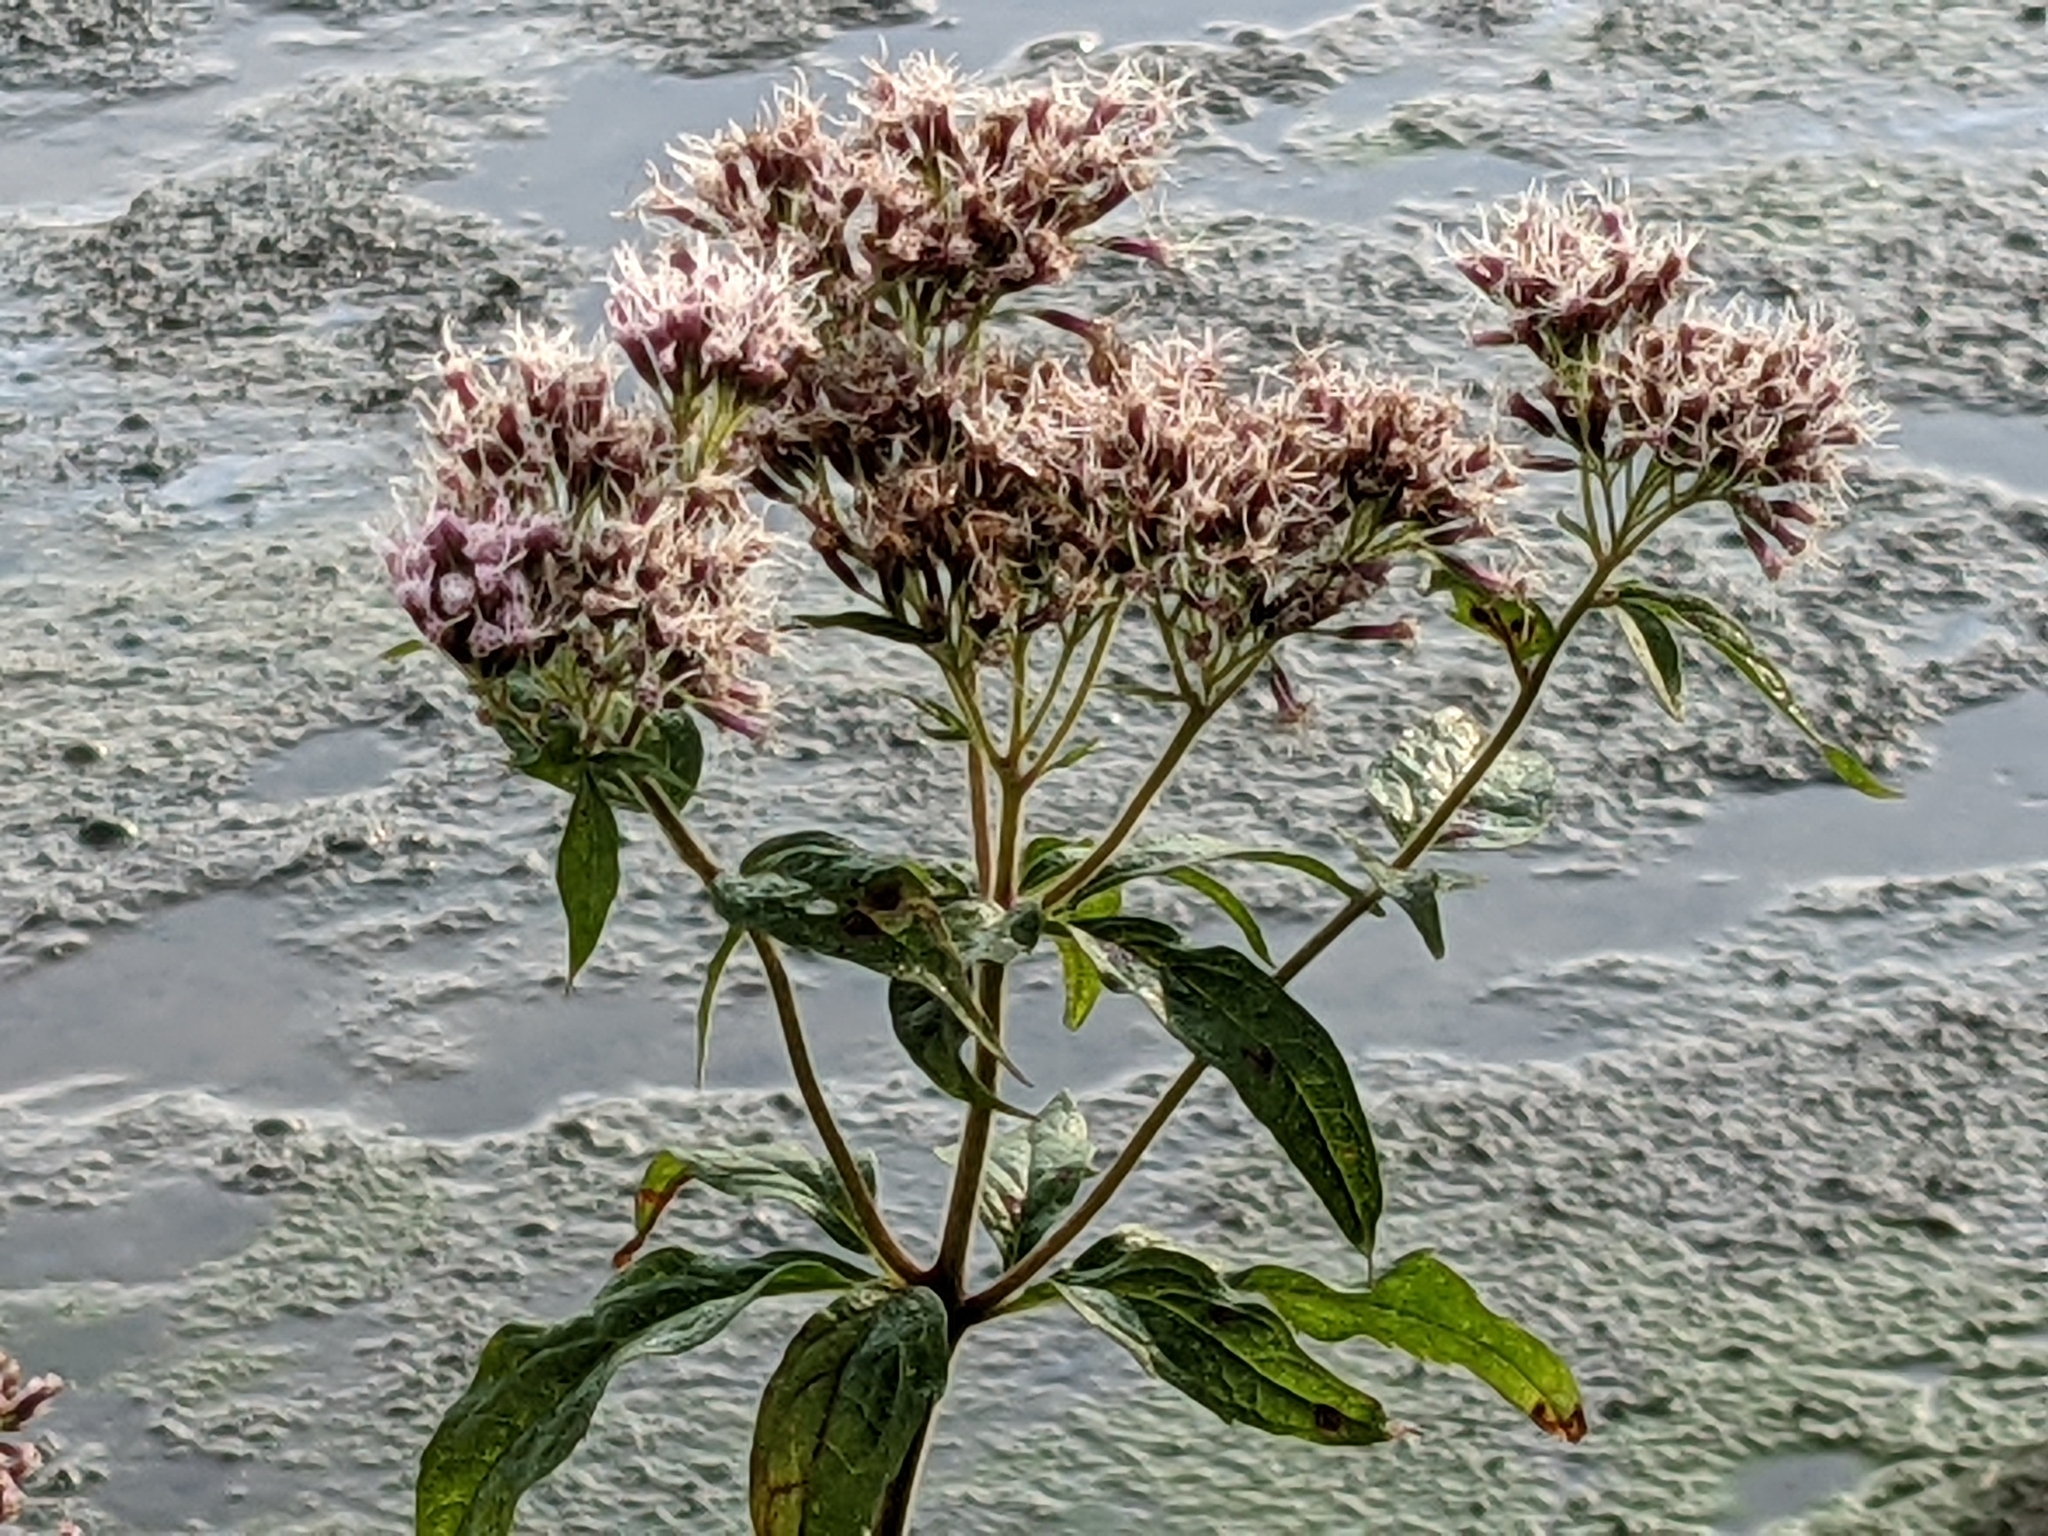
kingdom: Plantae
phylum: Tracheophyta
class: Magnoliopsida
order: Asterales
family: Asteraceae
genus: Eupatorium
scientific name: Eupatorium cannabinum
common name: Hemp-agrimony
